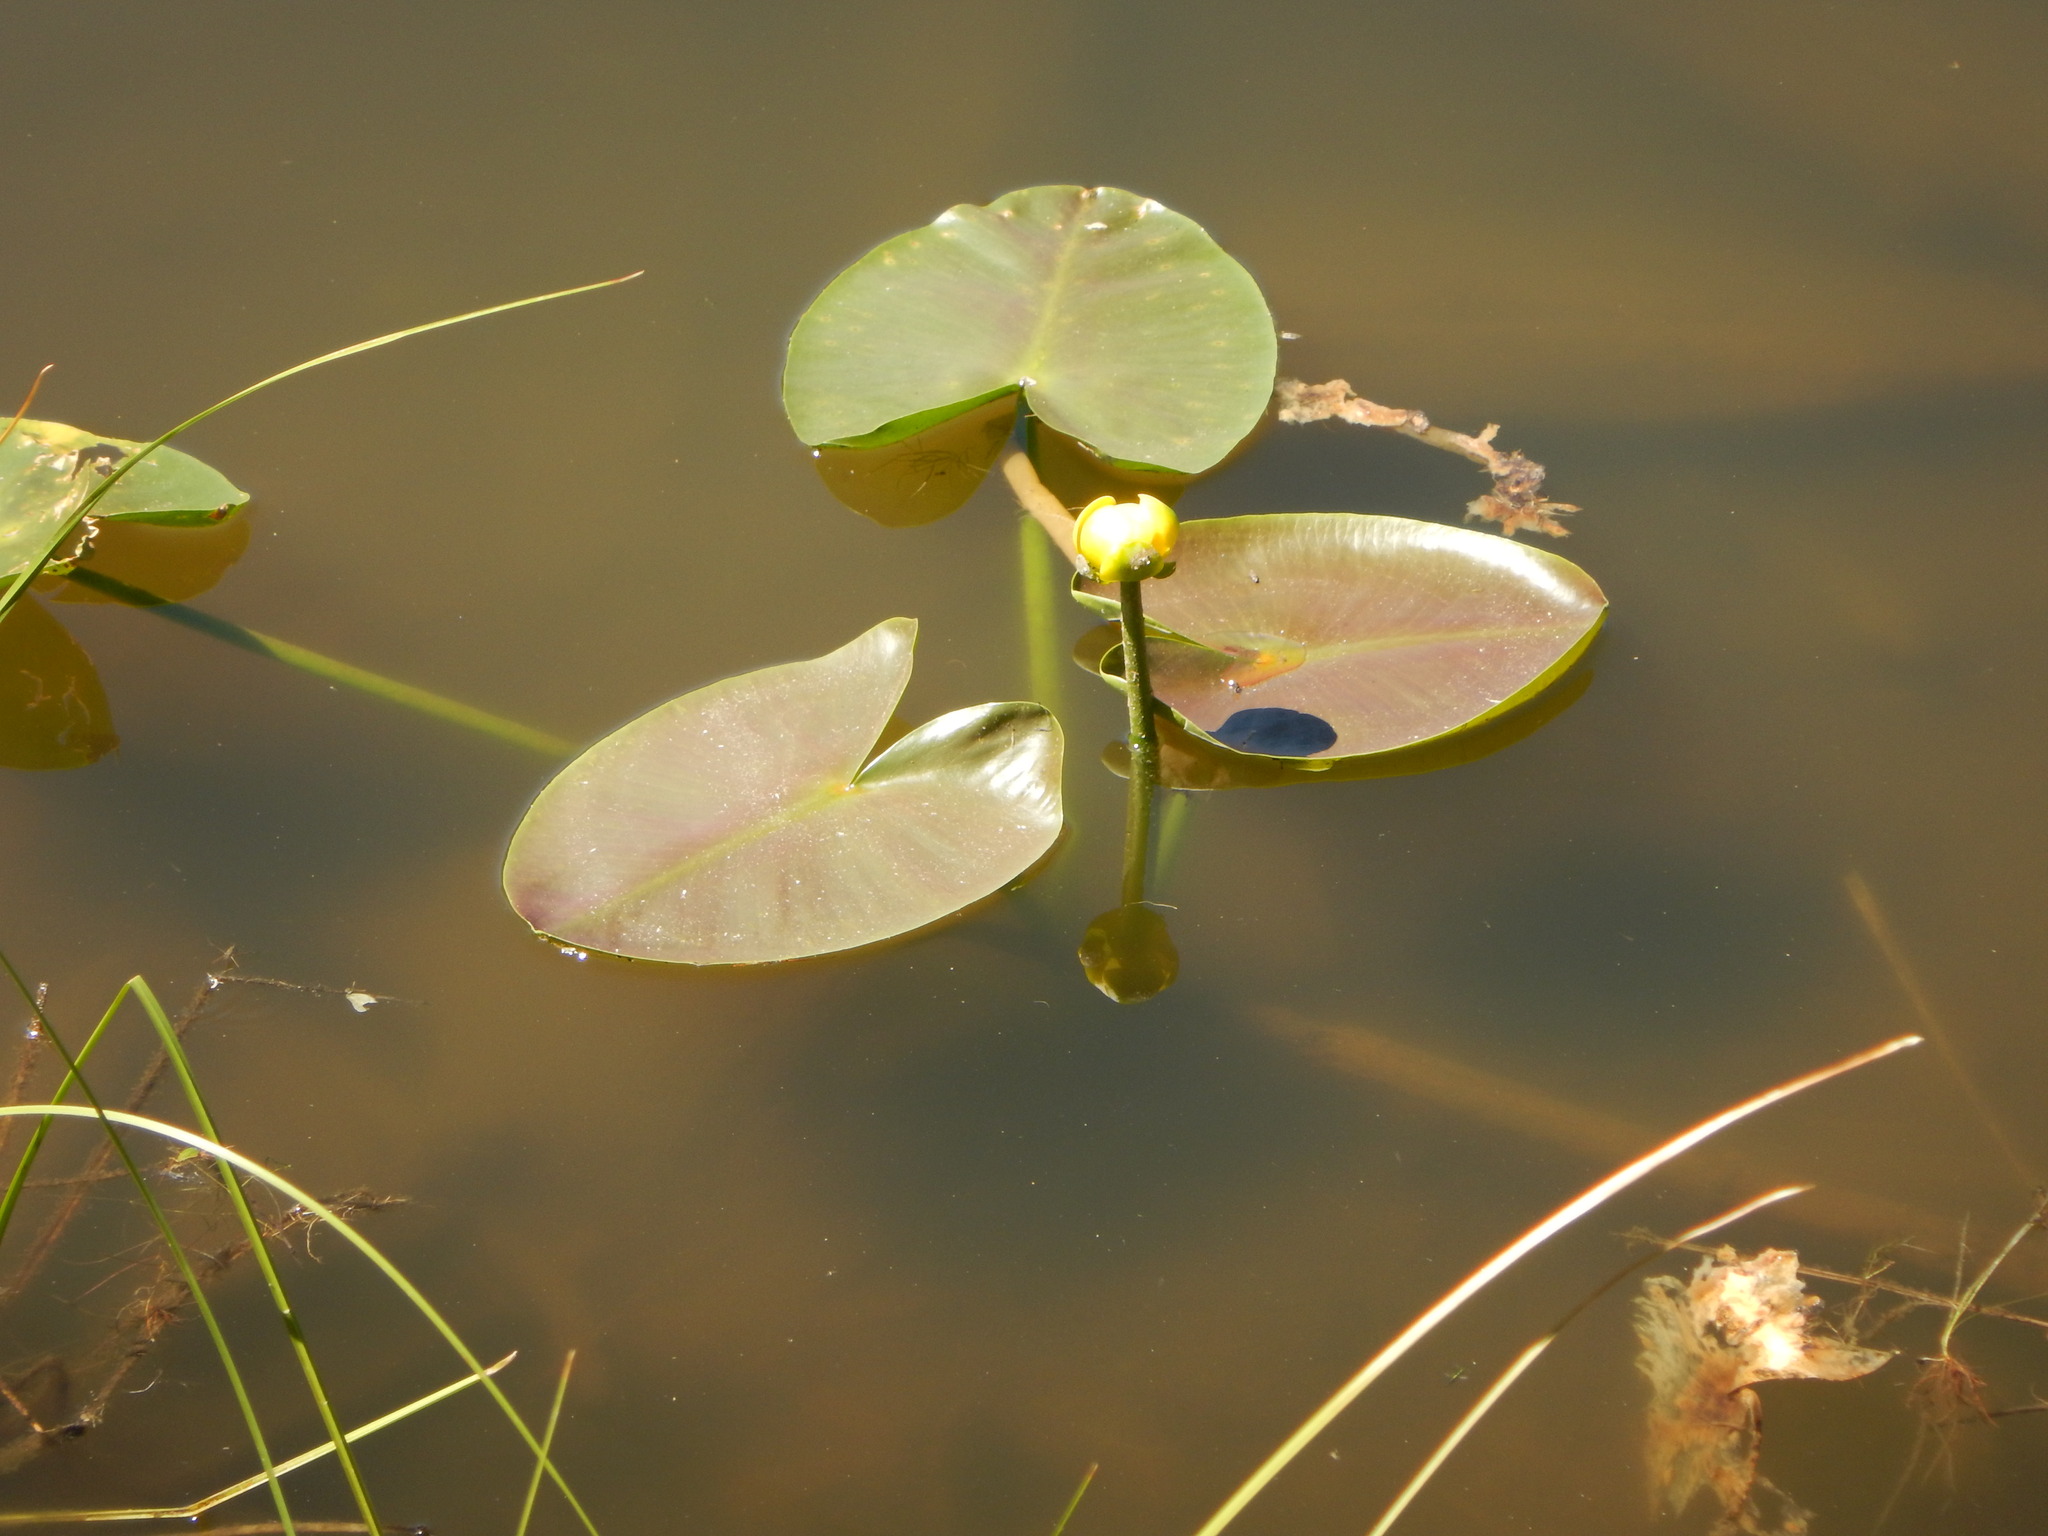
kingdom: Plantae
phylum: Tracheophyta
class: Magnoliopsida
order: Nymphaeales
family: Nymphaeaceae
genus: Nuphar
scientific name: Nuphar polysepala
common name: Rocky mountain cow-lily
